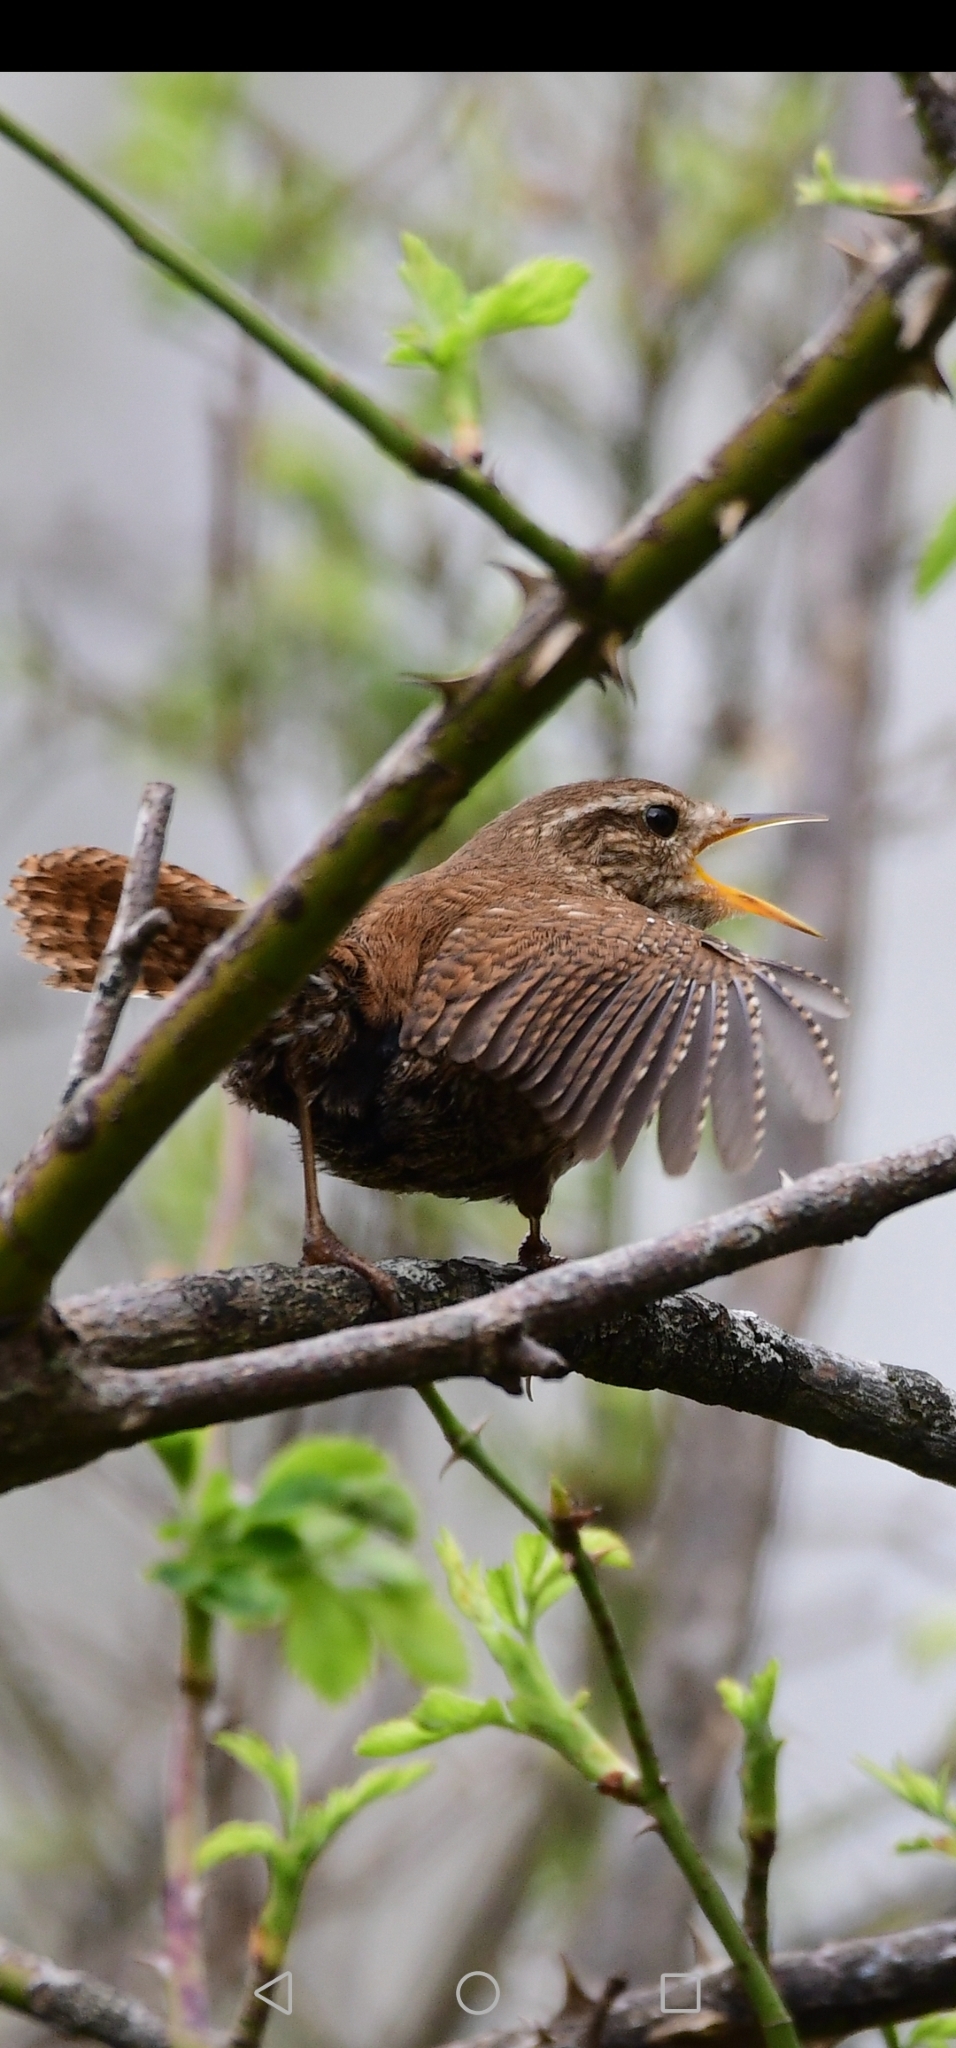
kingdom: Animalia
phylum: Chordata
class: Aves
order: Passeriformes
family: Troglodytidae
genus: Troglodytes
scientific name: Troglodytes troglodytes
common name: Eurasian wren
